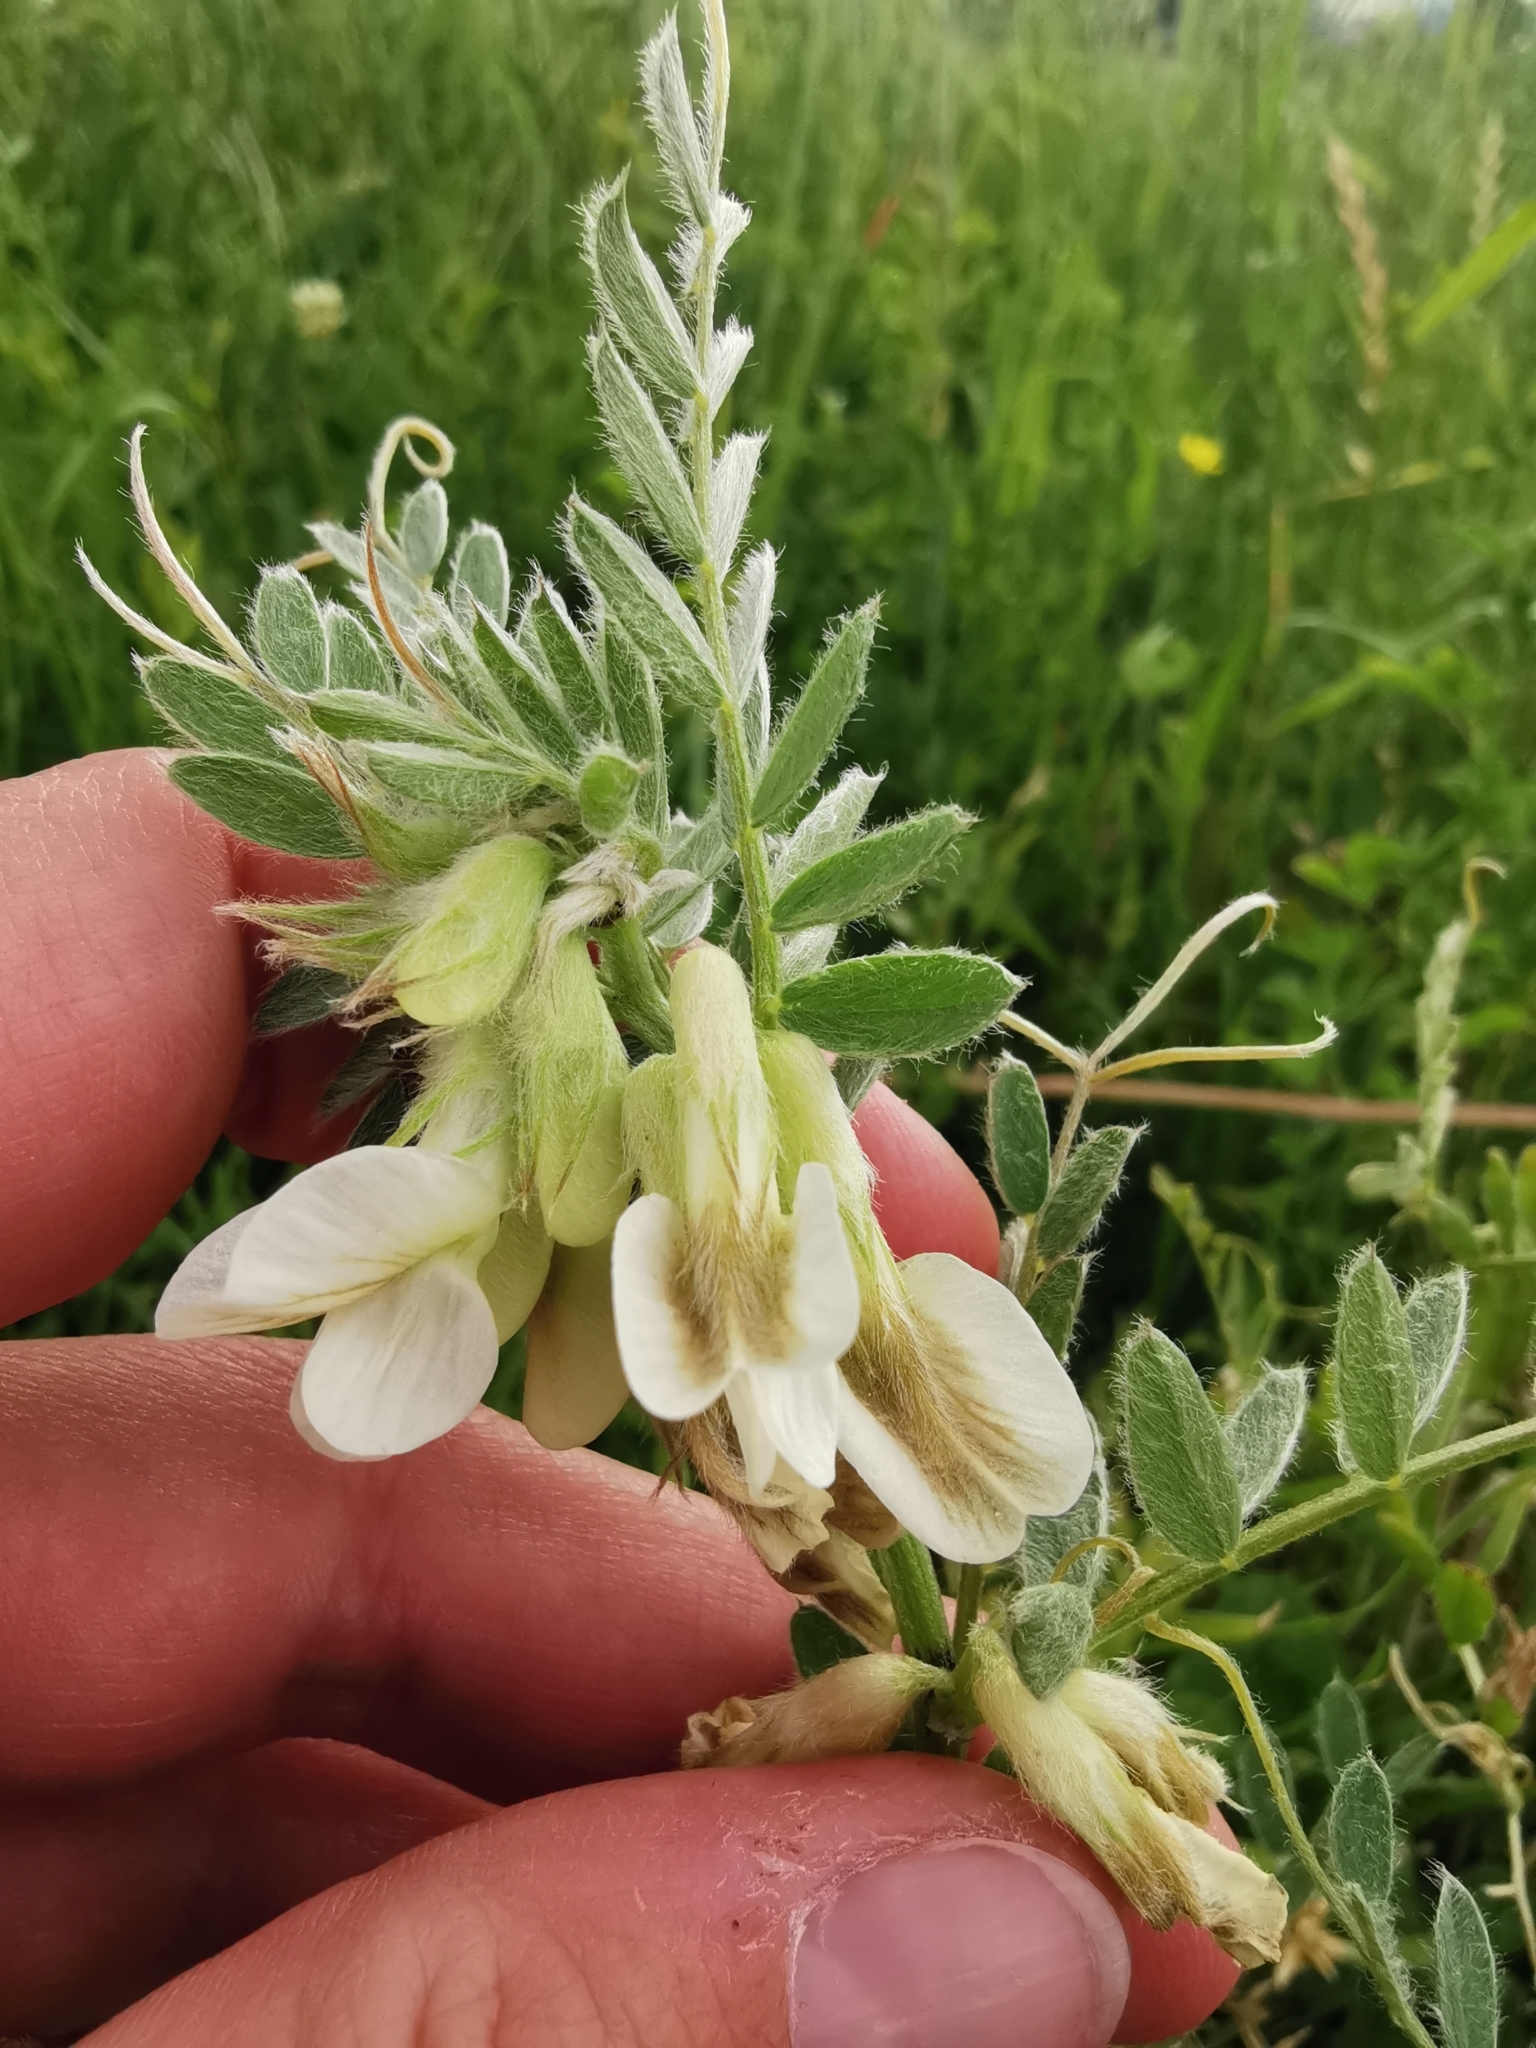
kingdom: Plantae
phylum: Tracheophyta
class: Magnoliopsida
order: Fabales
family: Fabaceae
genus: Vicia
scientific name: Vicia pannonica
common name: Hungarian vetch
